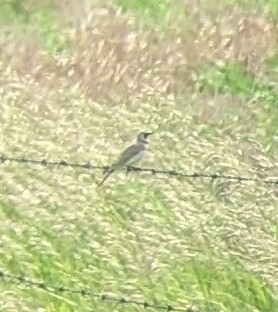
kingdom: Animalia
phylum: Chordata
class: Aves
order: Passeriformes
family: Alaudidae
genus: Eremophila
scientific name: Eremophila alpestris
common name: Horned lark
